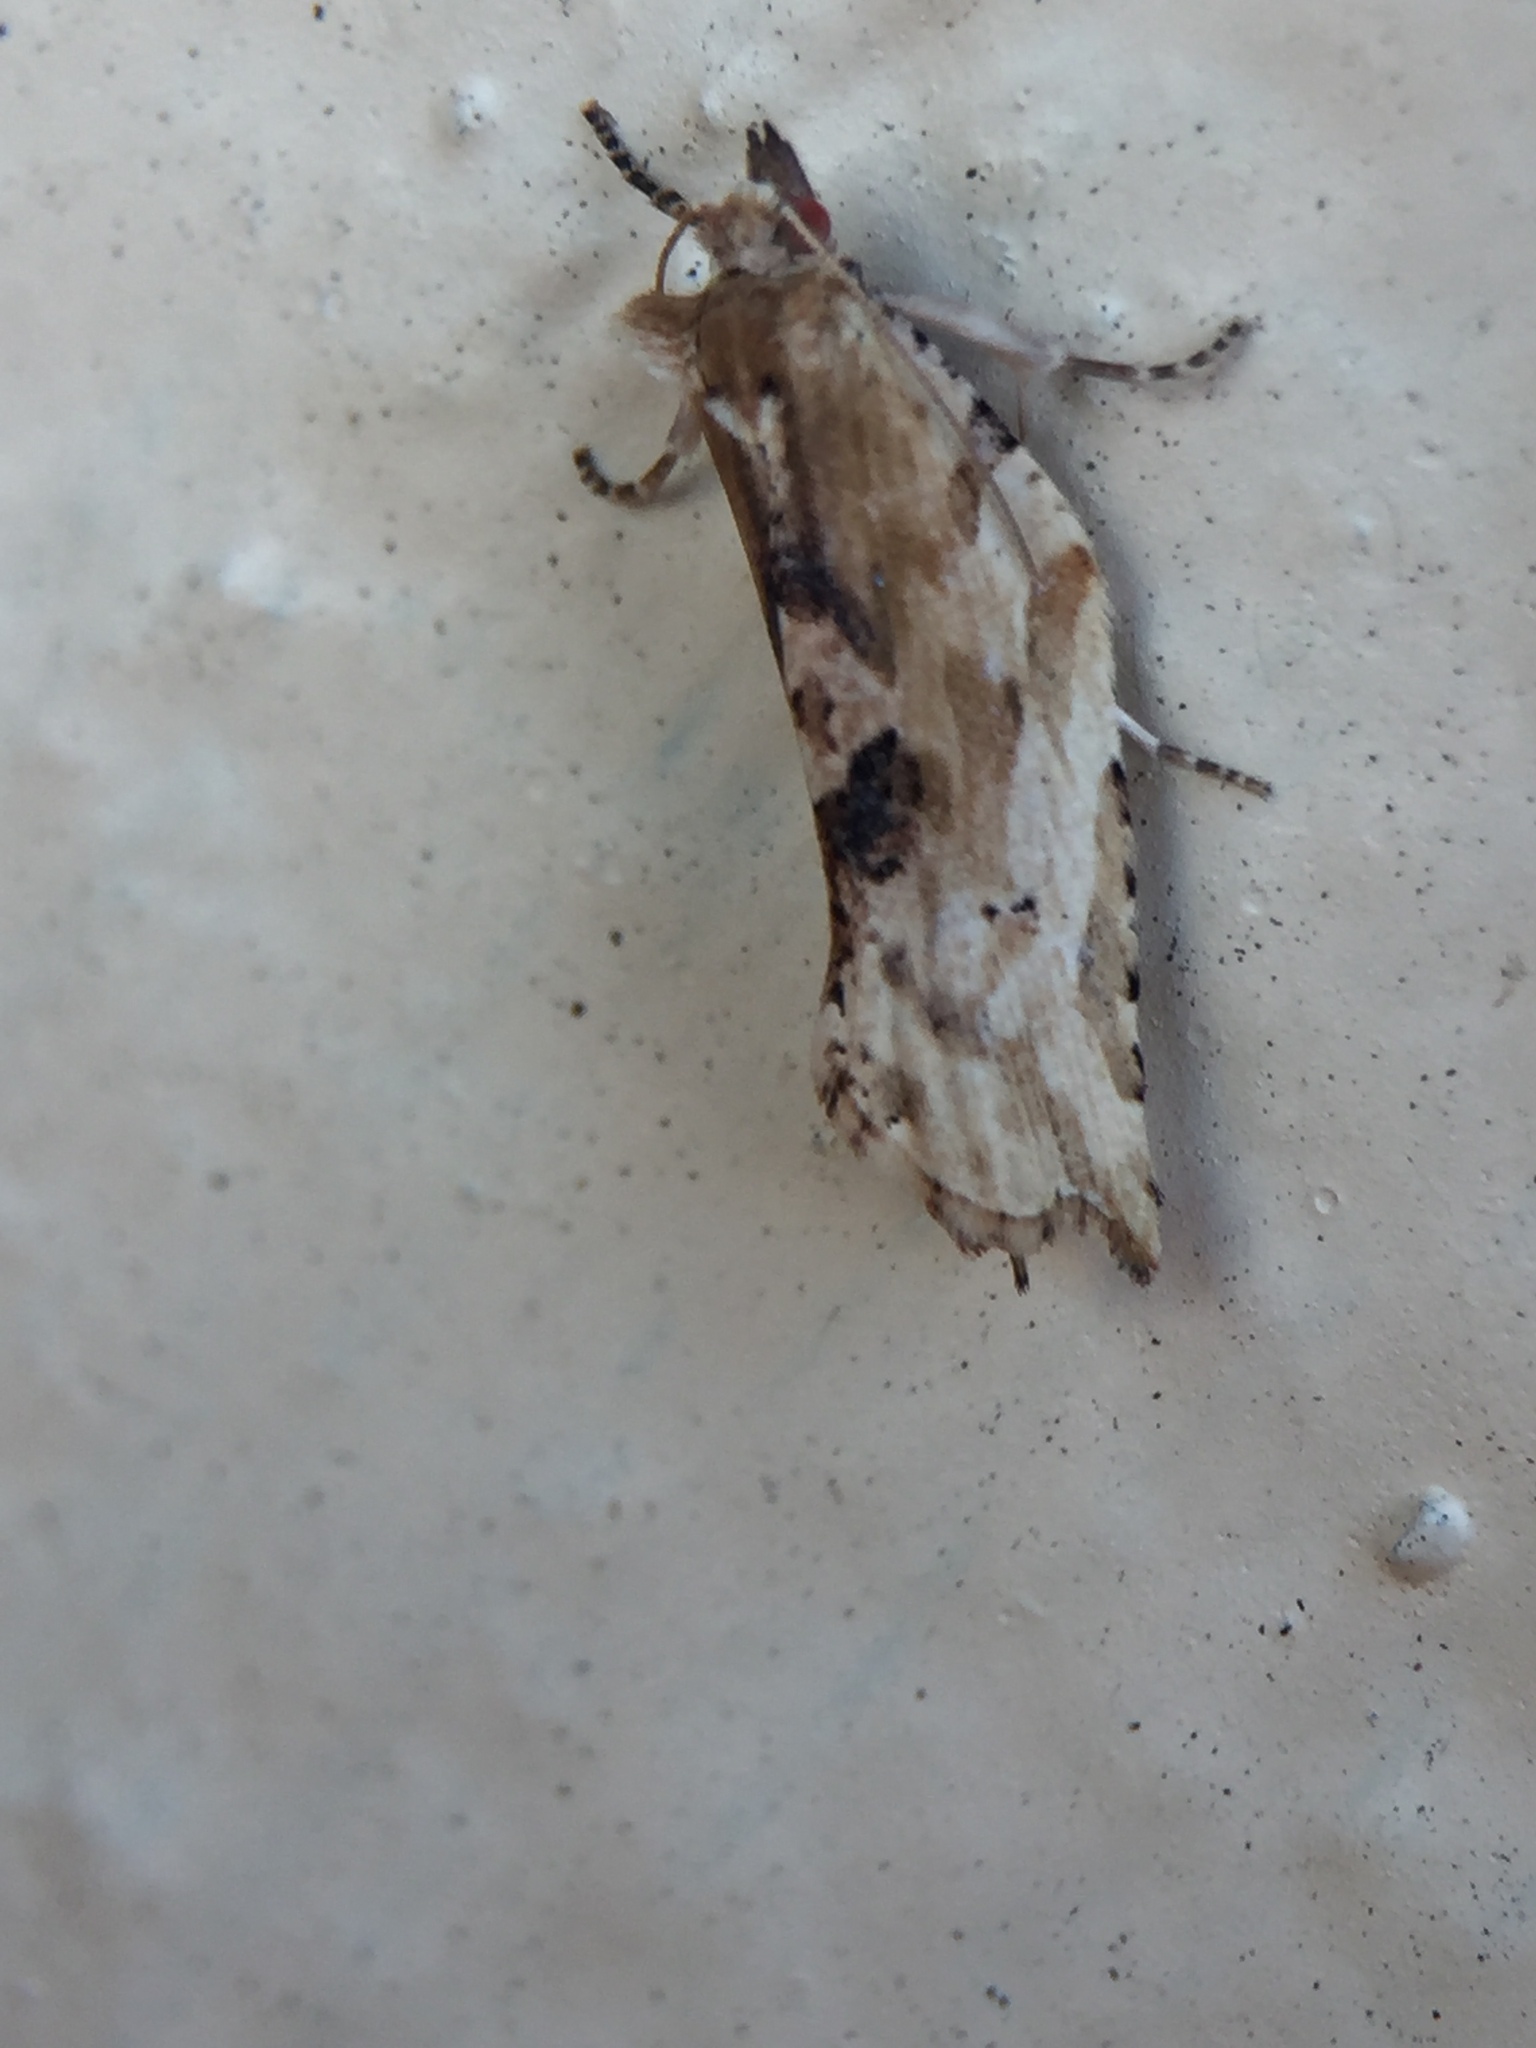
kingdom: Animalia
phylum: Arthropoda
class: Insecta
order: Lepidoptera
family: Tortricidae
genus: Epalxiphora
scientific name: Epalxiphora axenana
